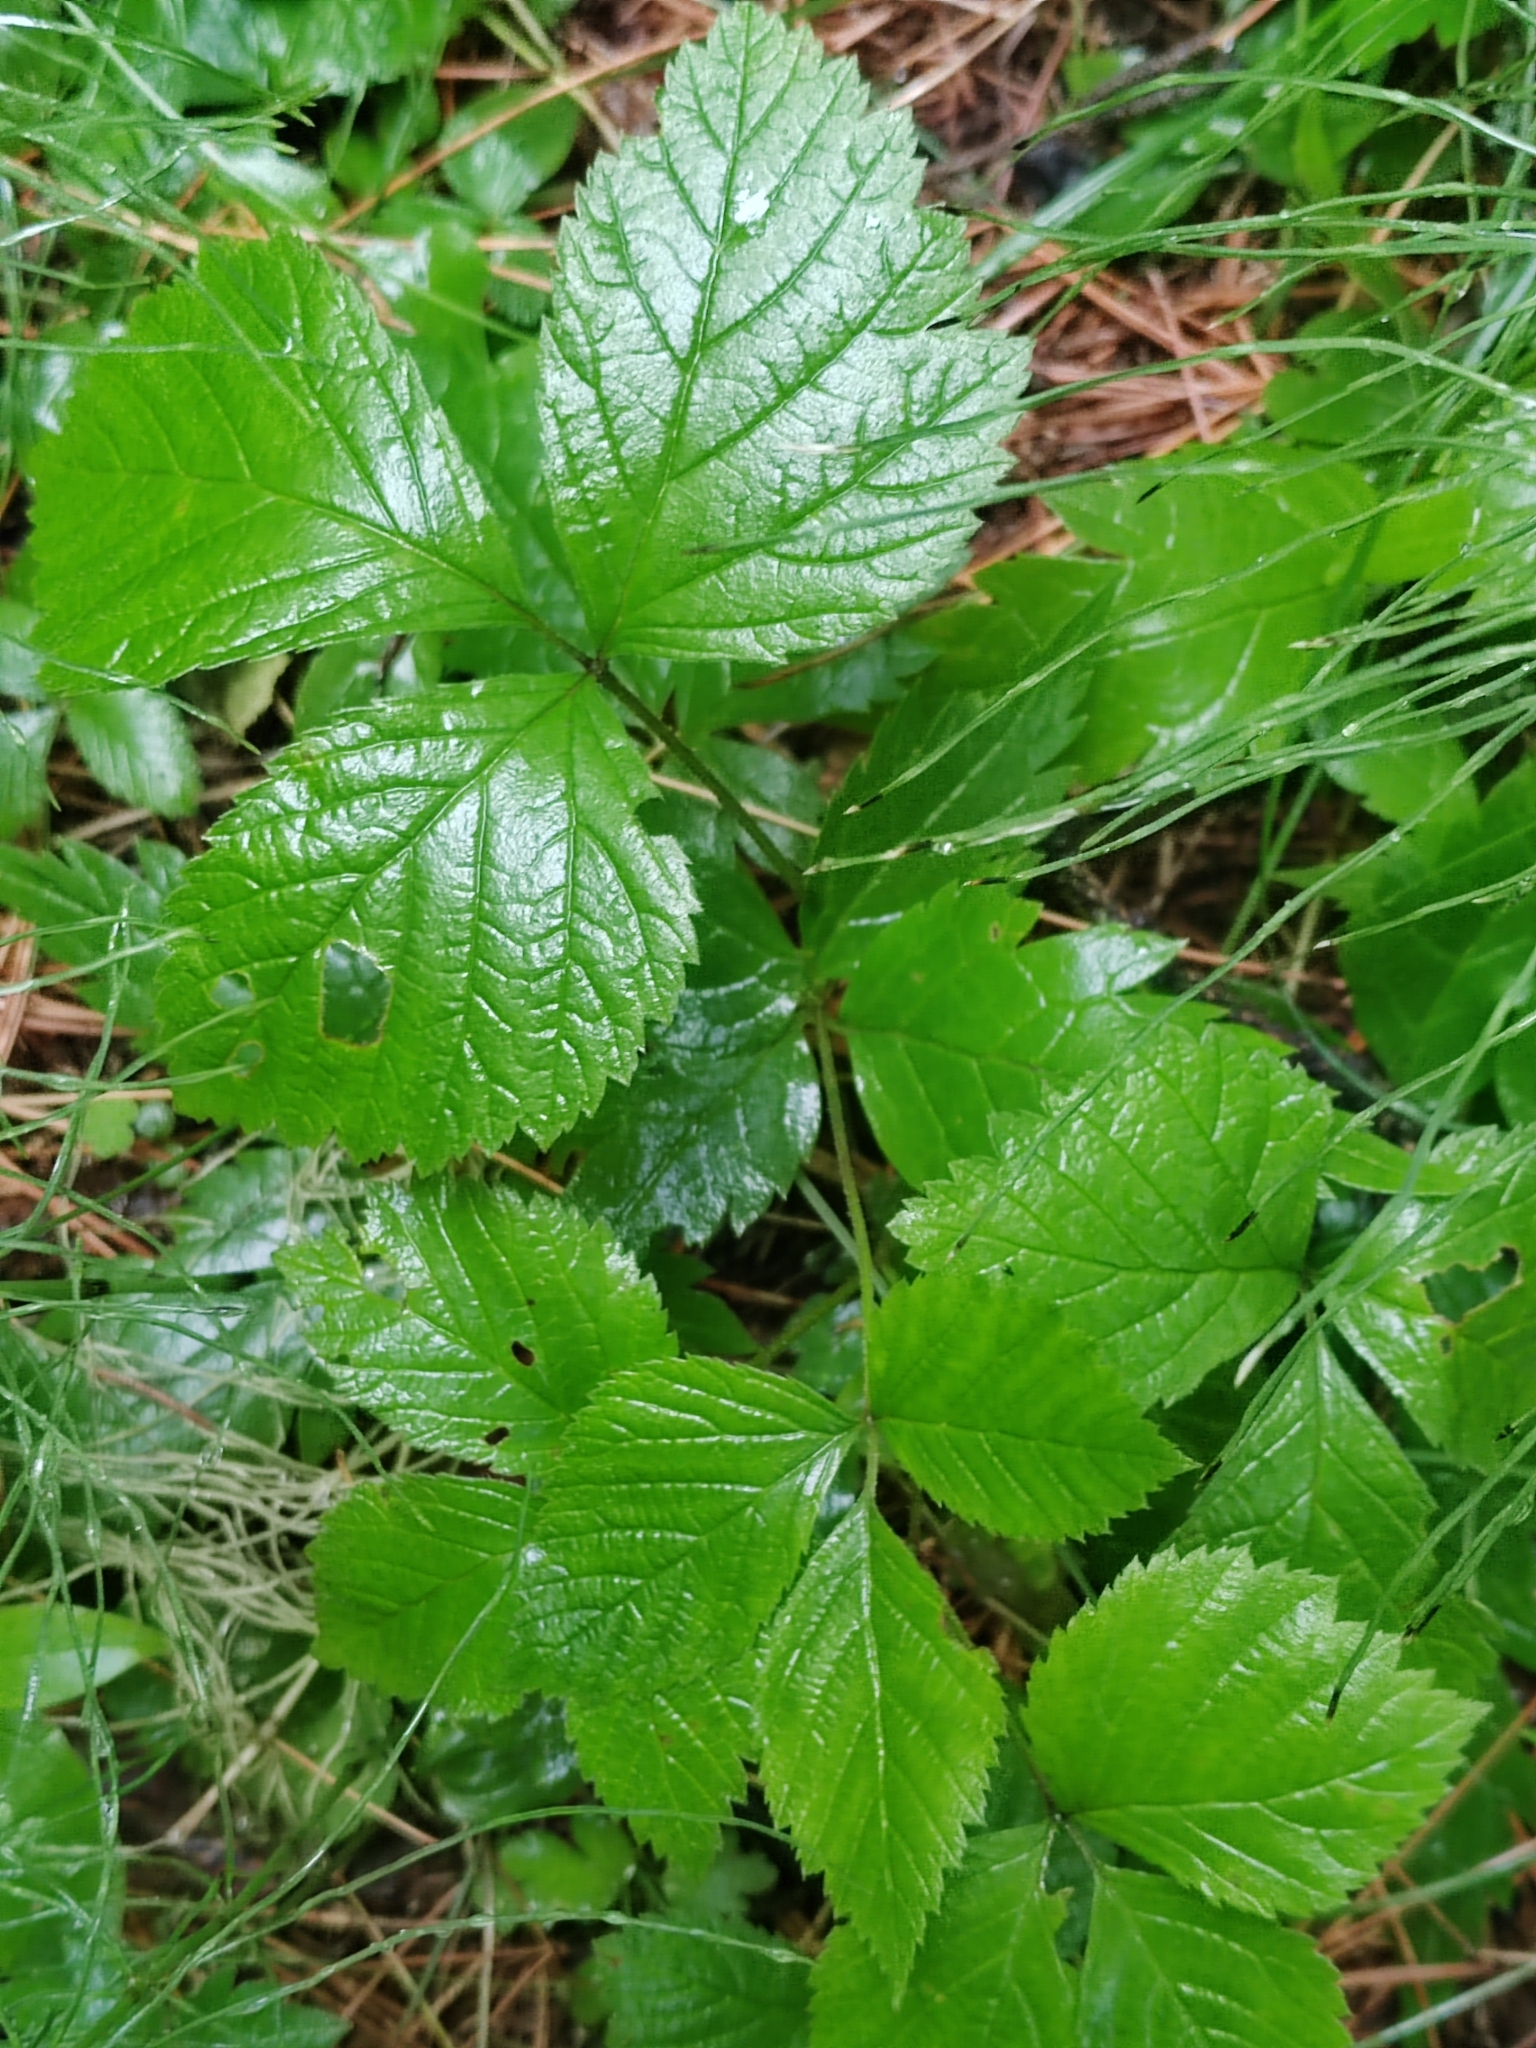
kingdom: Plantae
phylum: Tracheophyta
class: Magnoliopsida
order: Rosales
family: Rosaceae
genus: Rubus
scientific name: Rubus saxatilis
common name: Stone bramble
